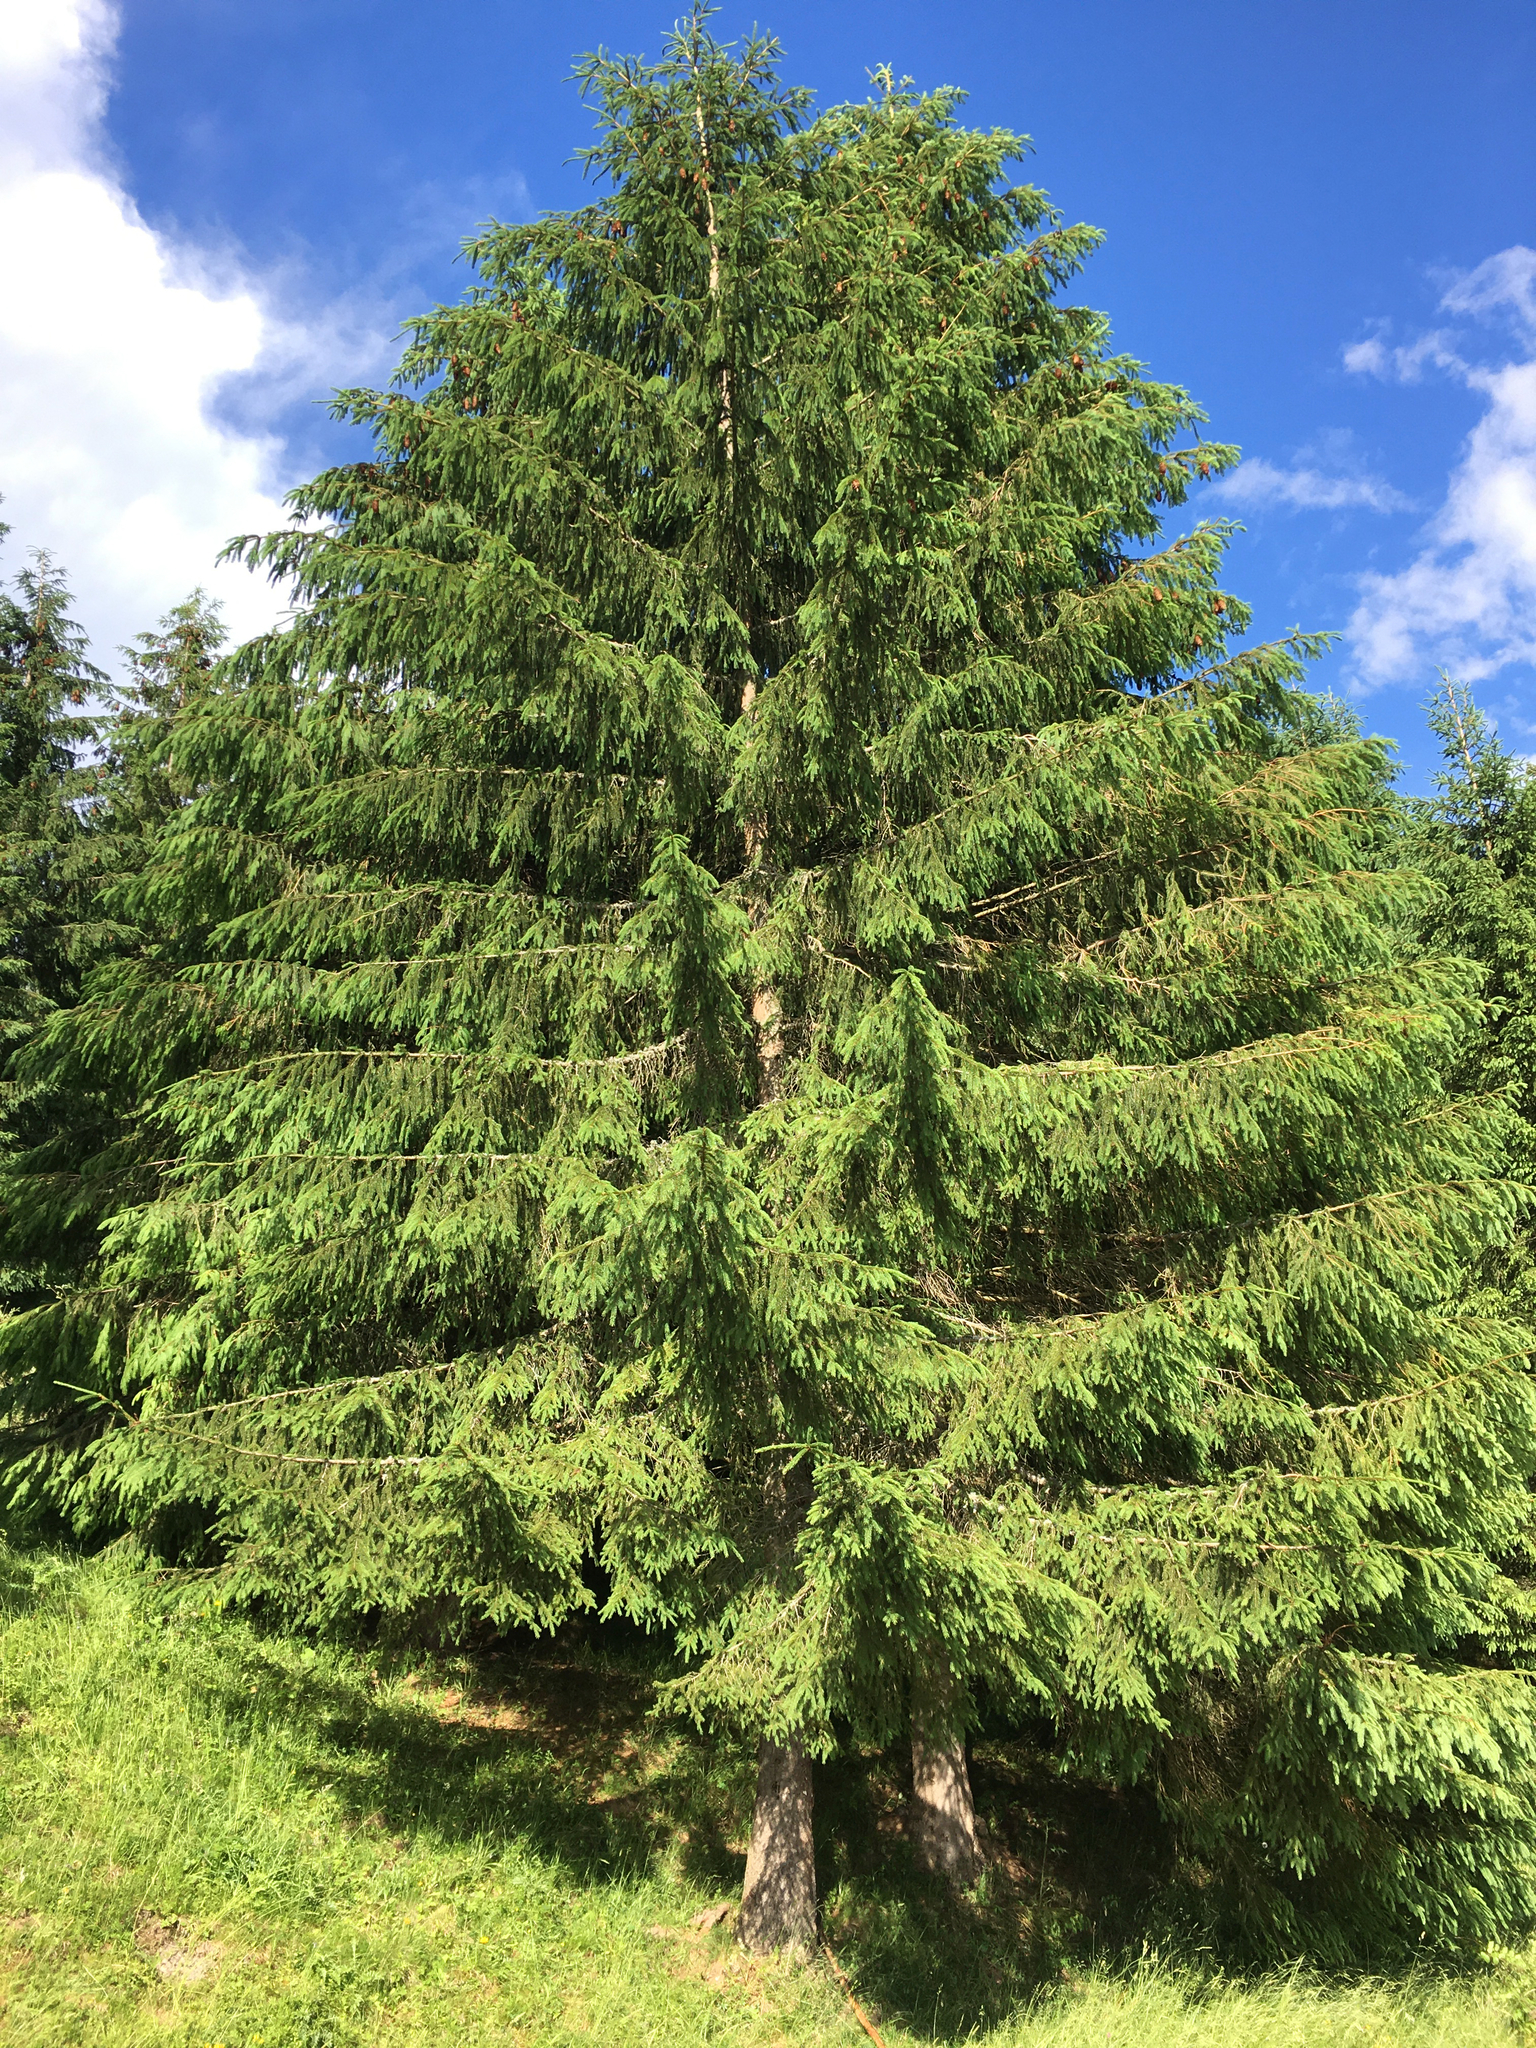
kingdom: Plantae
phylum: Tracheophyta
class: Pinopsida
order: Pinales
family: Pinaceae
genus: Picea
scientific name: Picea abies
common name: Norway spruce
